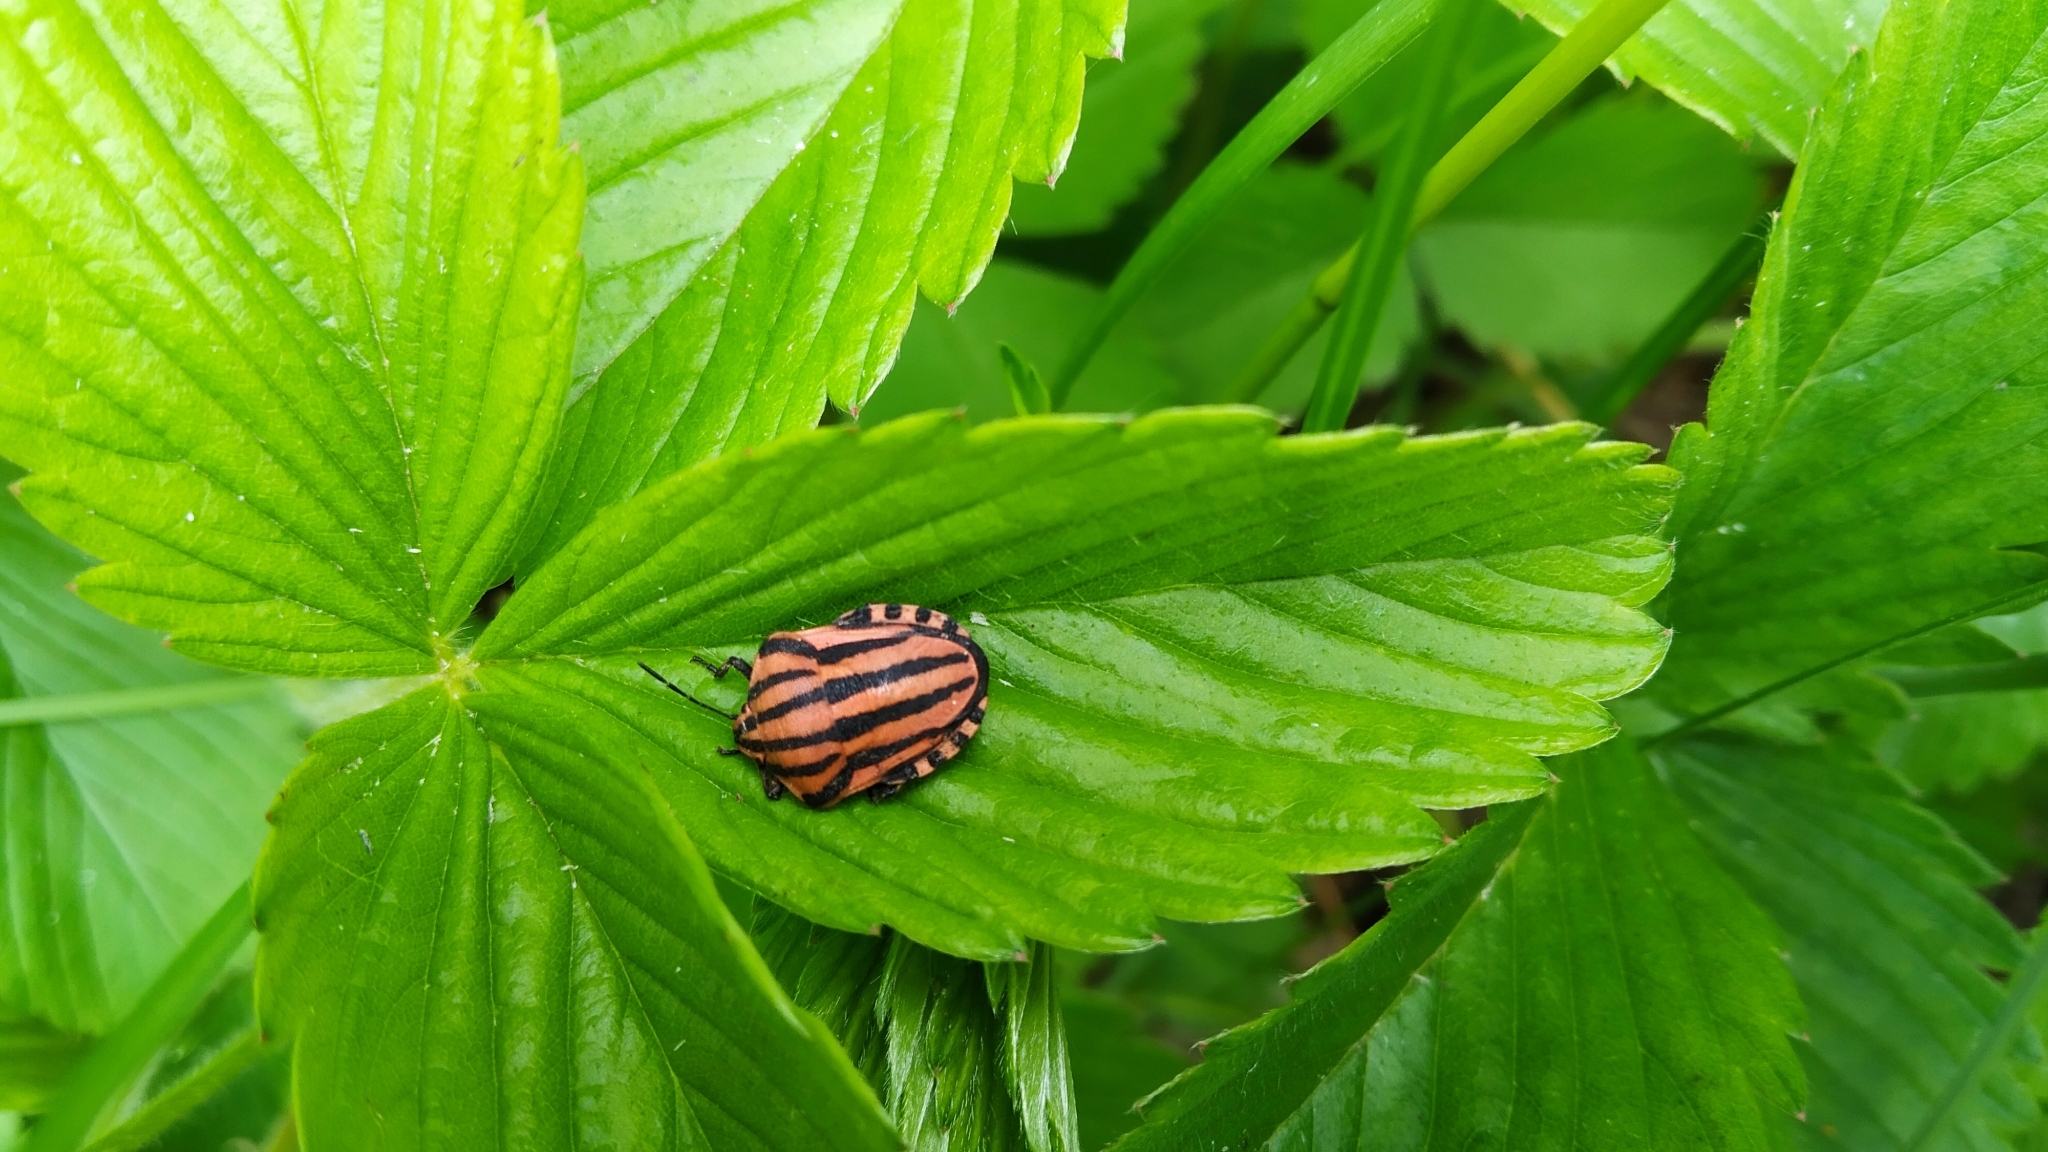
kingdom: Animalia
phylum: Arthropoda
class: Insecta
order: Hemiptera
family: Pentatomidae
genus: Graphosoma
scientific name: Graphosoma italicum
